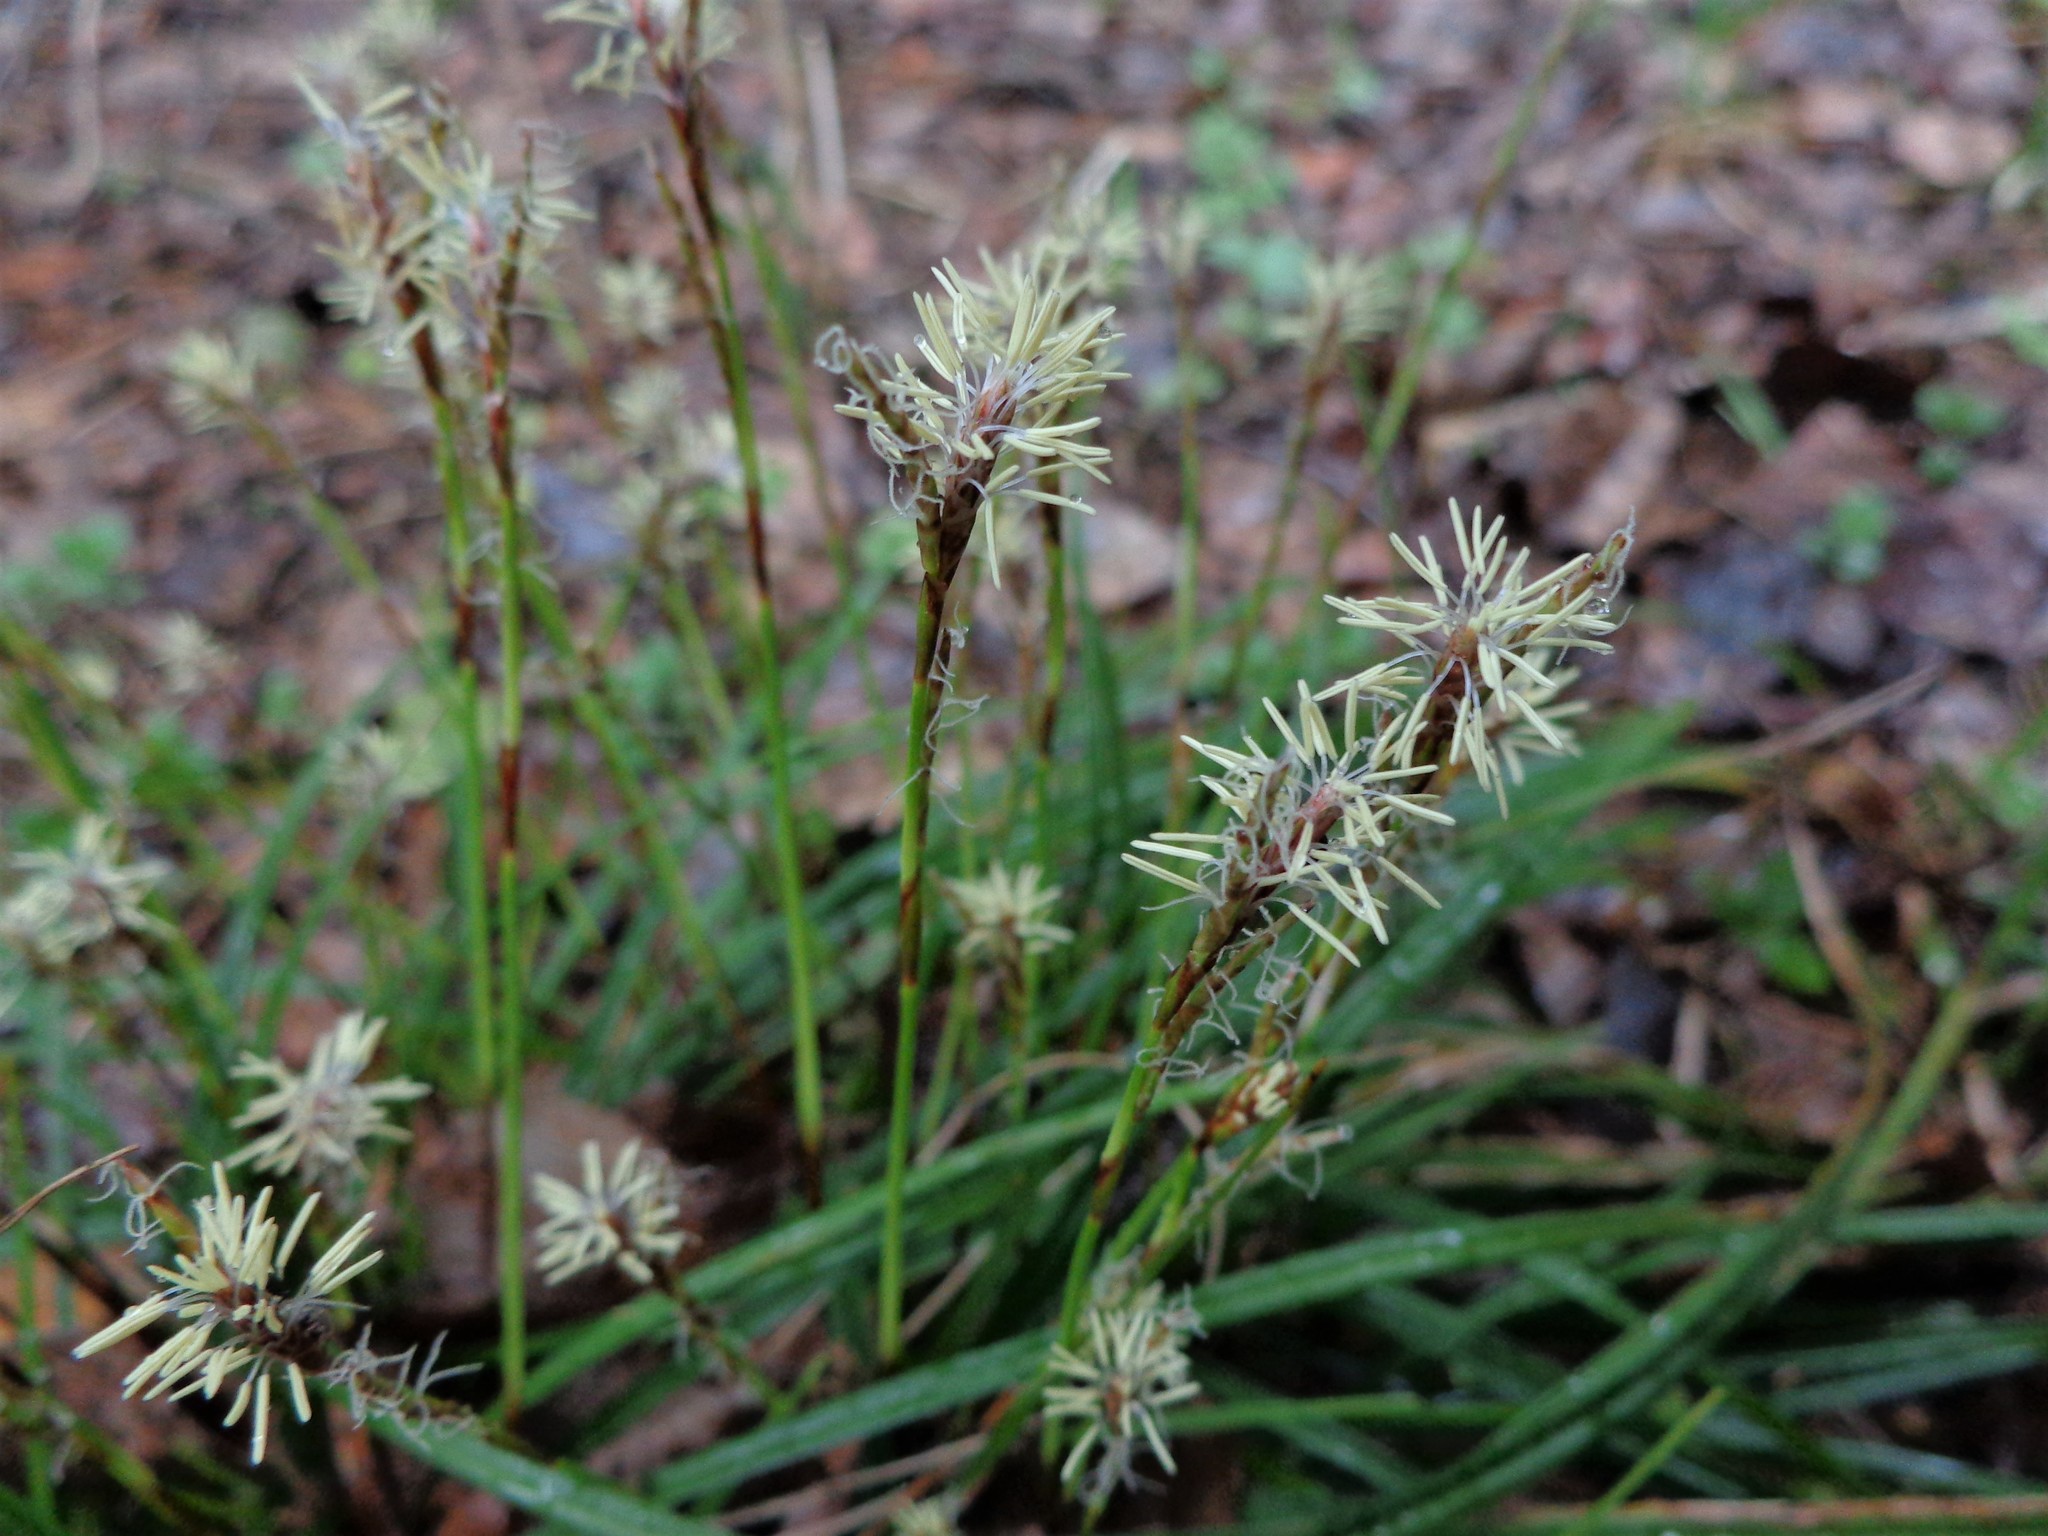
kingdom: Plantae
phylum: Tracheophyta
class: Liliopsida
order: Poales
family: Cyperaceae
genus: Carex
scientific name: Carex digitata
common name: Fingered sedge
